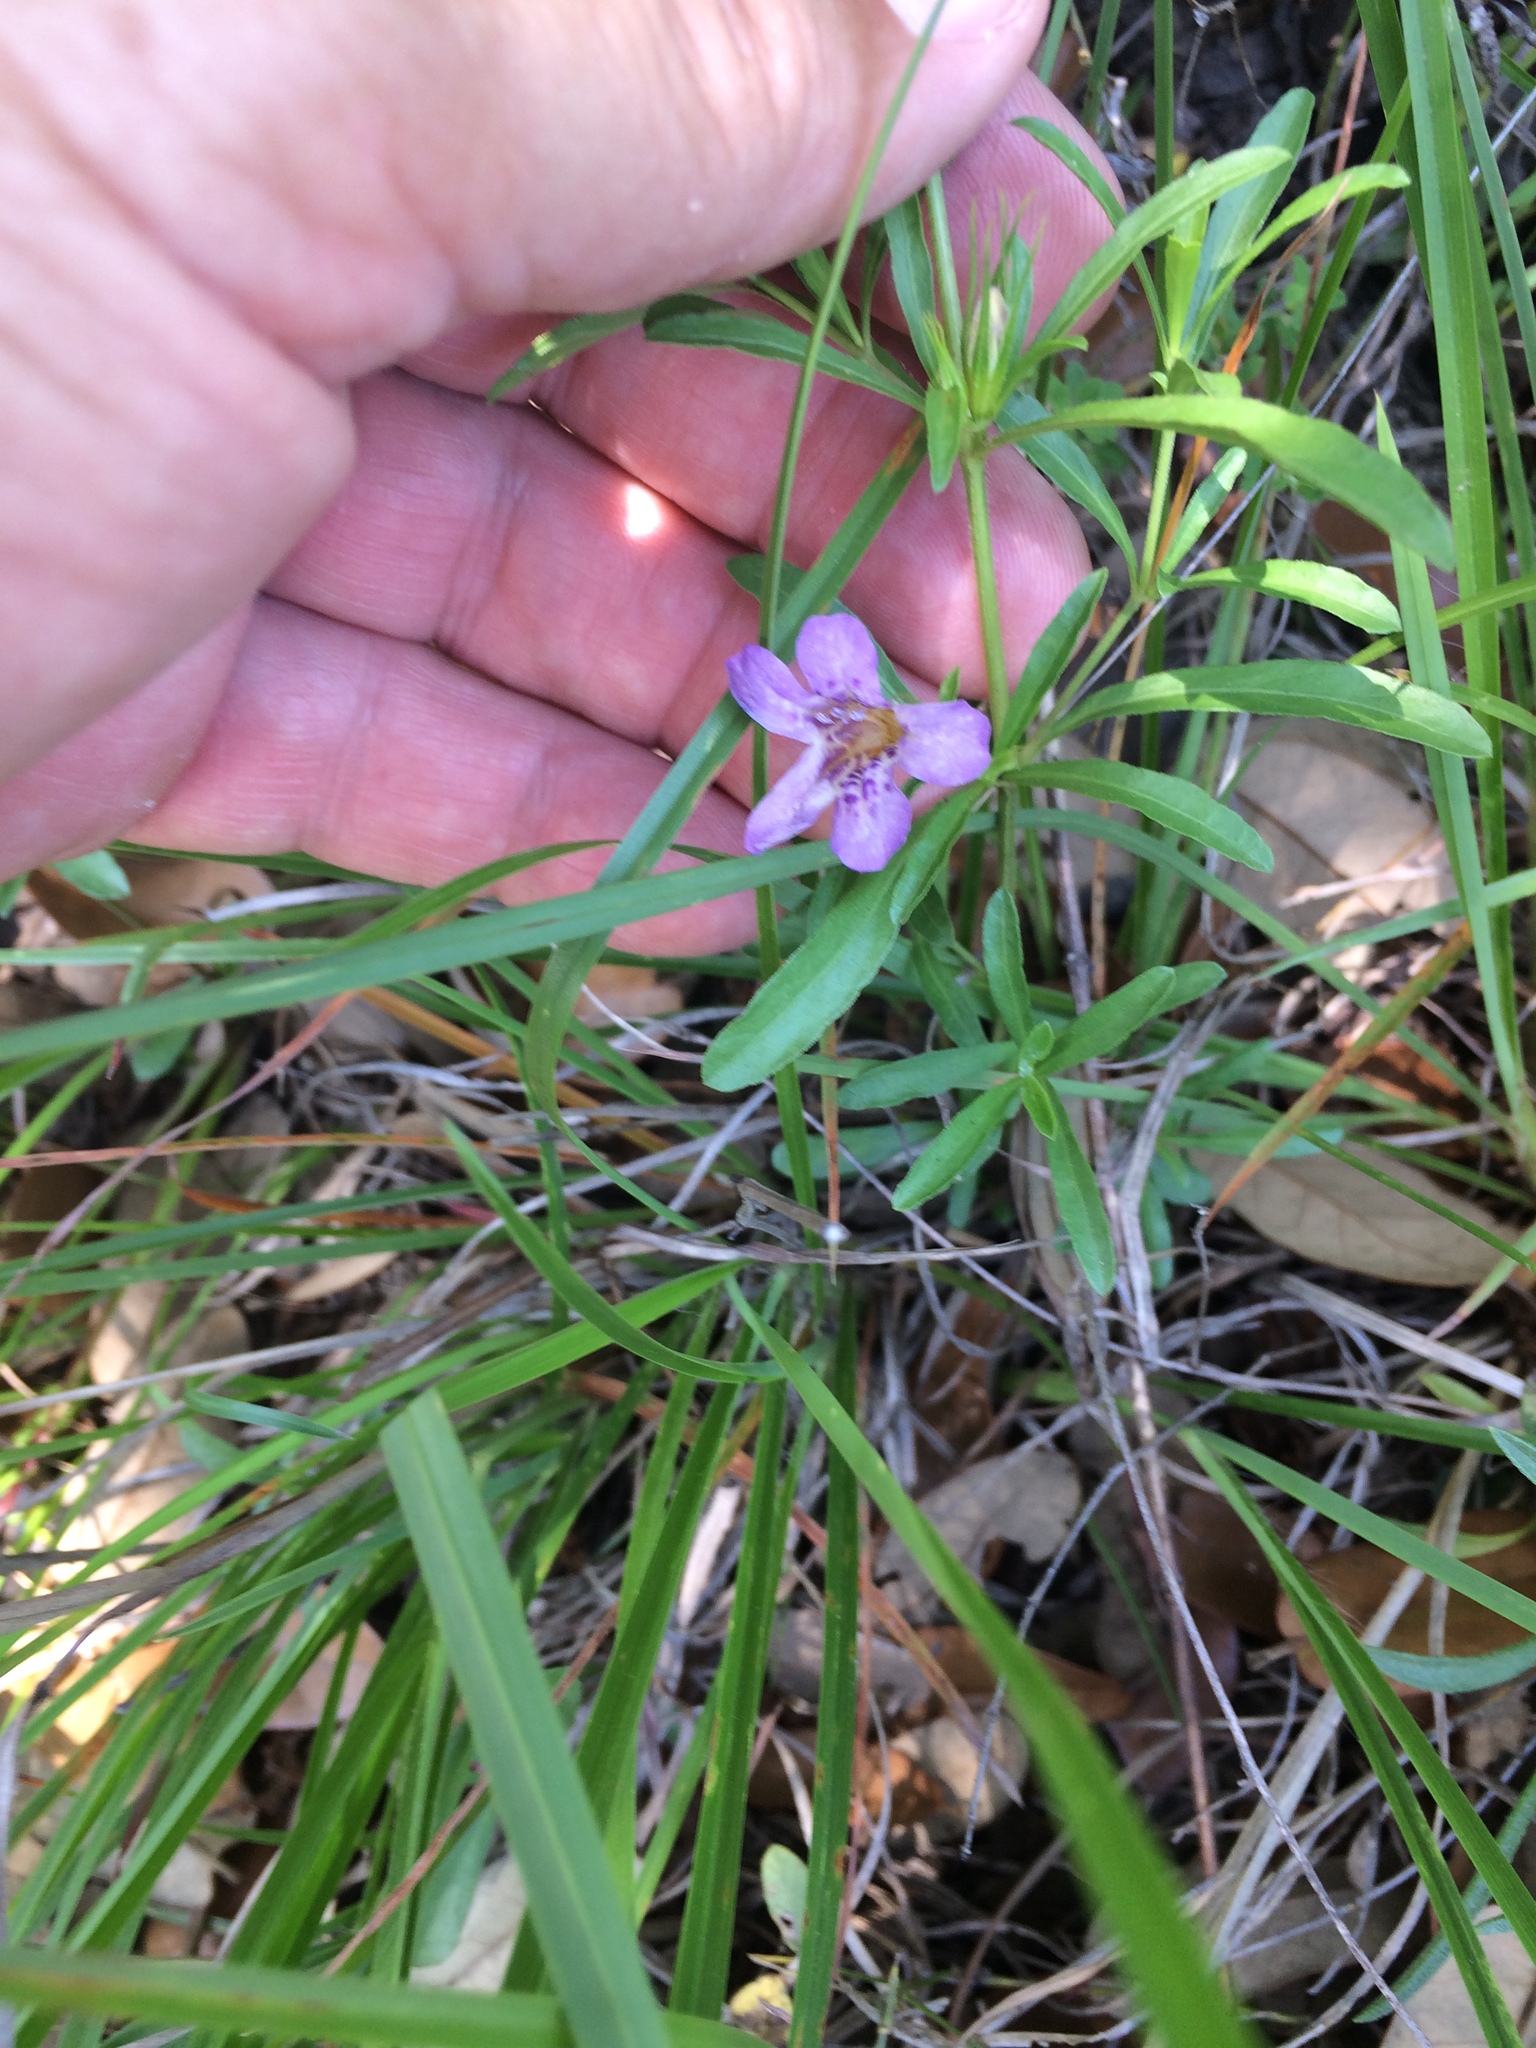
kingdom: Plantae
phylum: Tracheophyta
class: Magnoliopsida
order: Lamiales
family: Acanthaceae
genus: Dyschoriste
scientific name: Dyschoriste linearis
